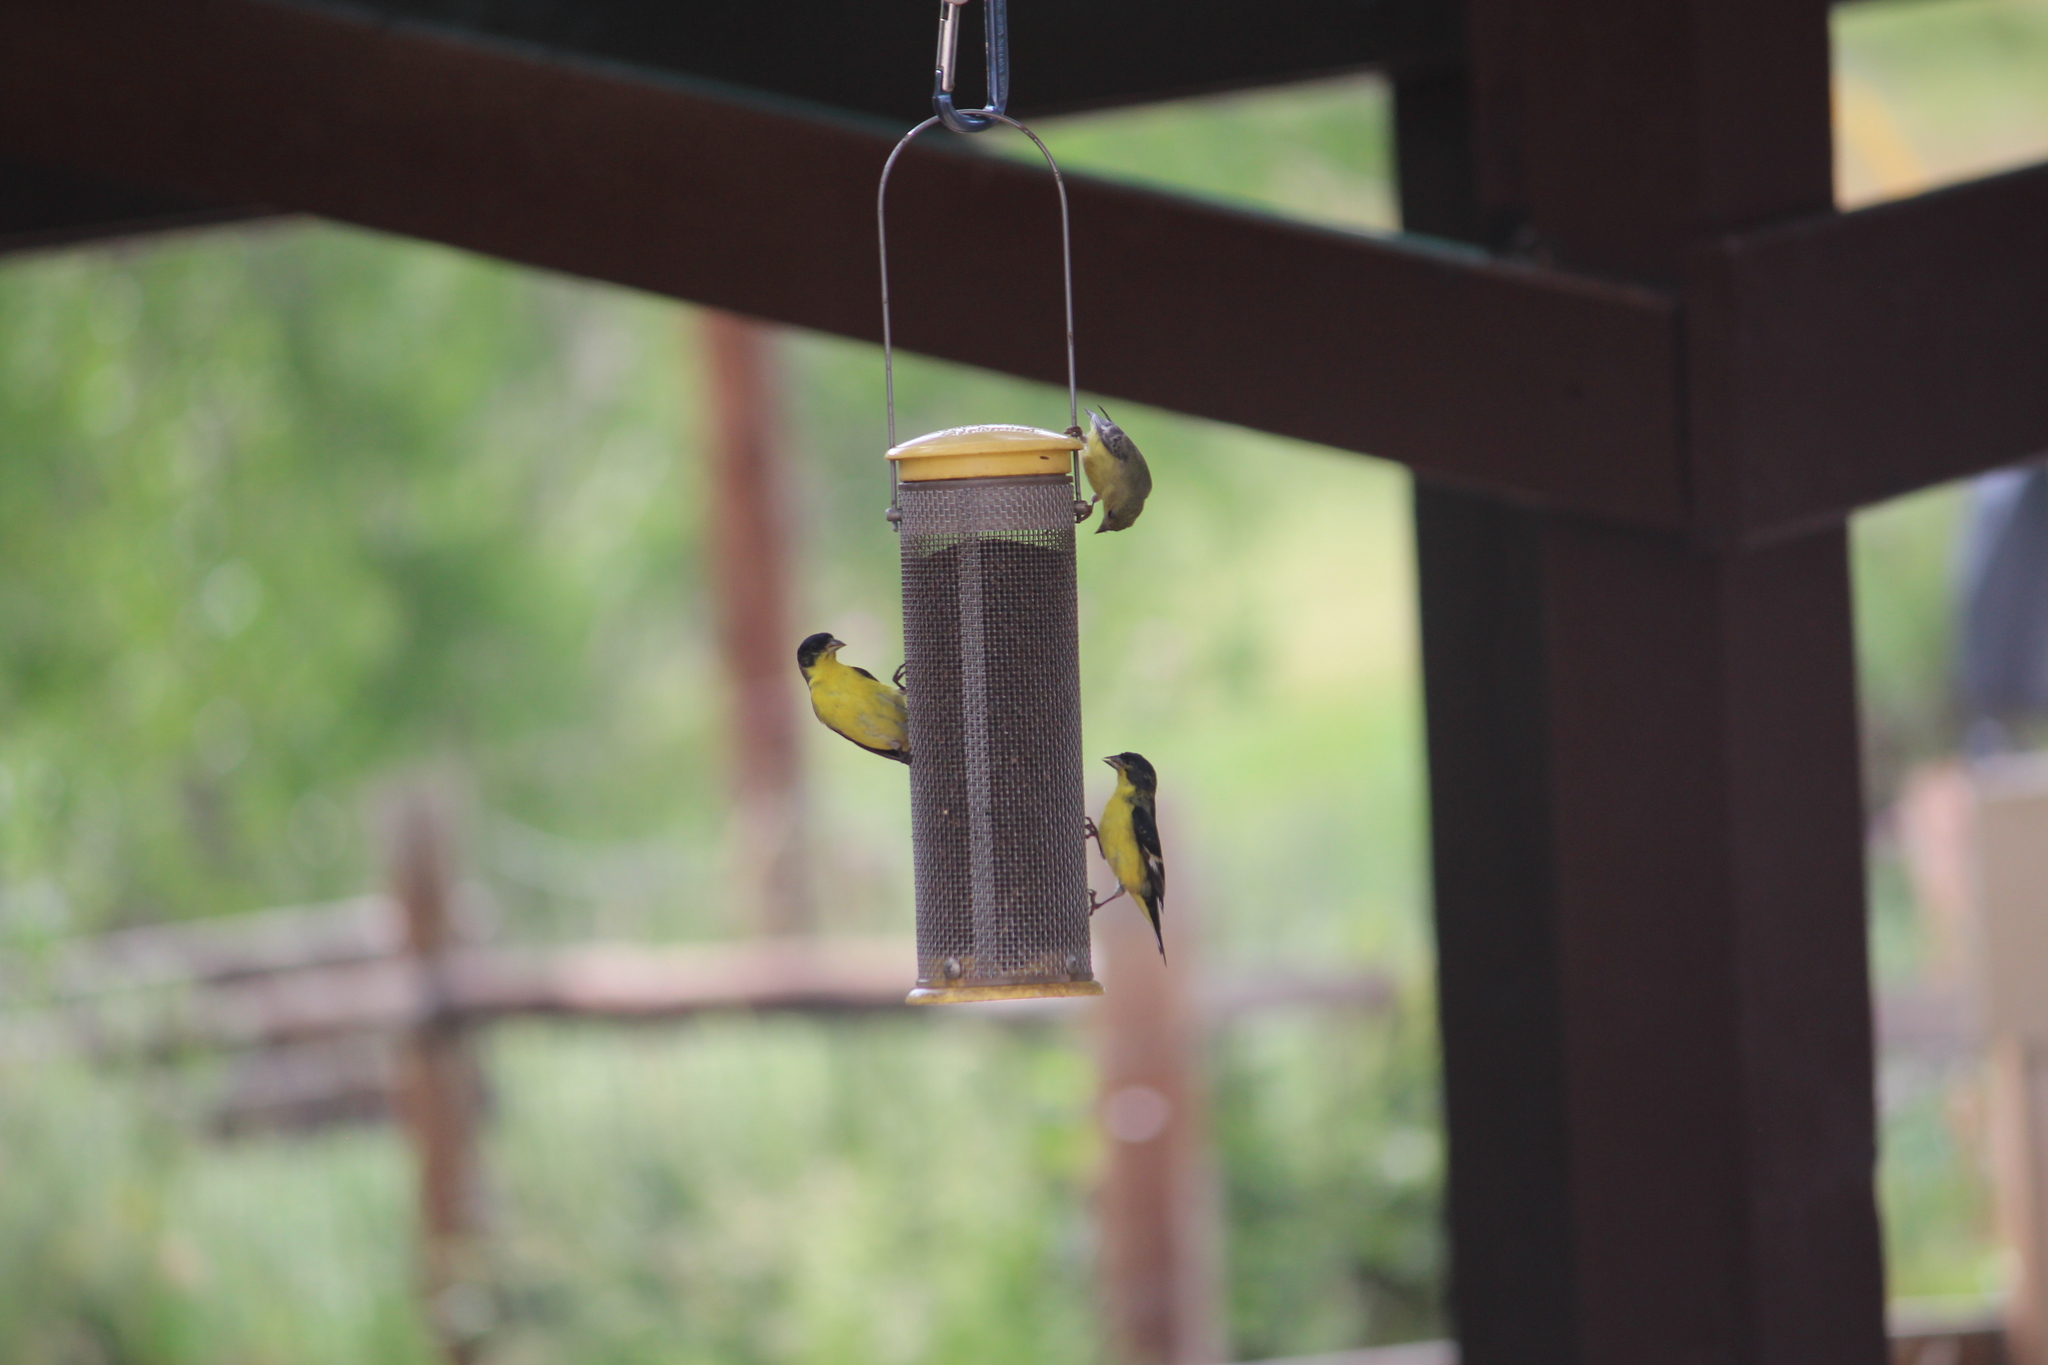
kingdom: Animalia
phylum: Chordata
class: Aves
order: Passeriformes
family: Fringillidae
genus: Spinus
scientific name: Spinus psaltria
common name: Lesser goldfinch
